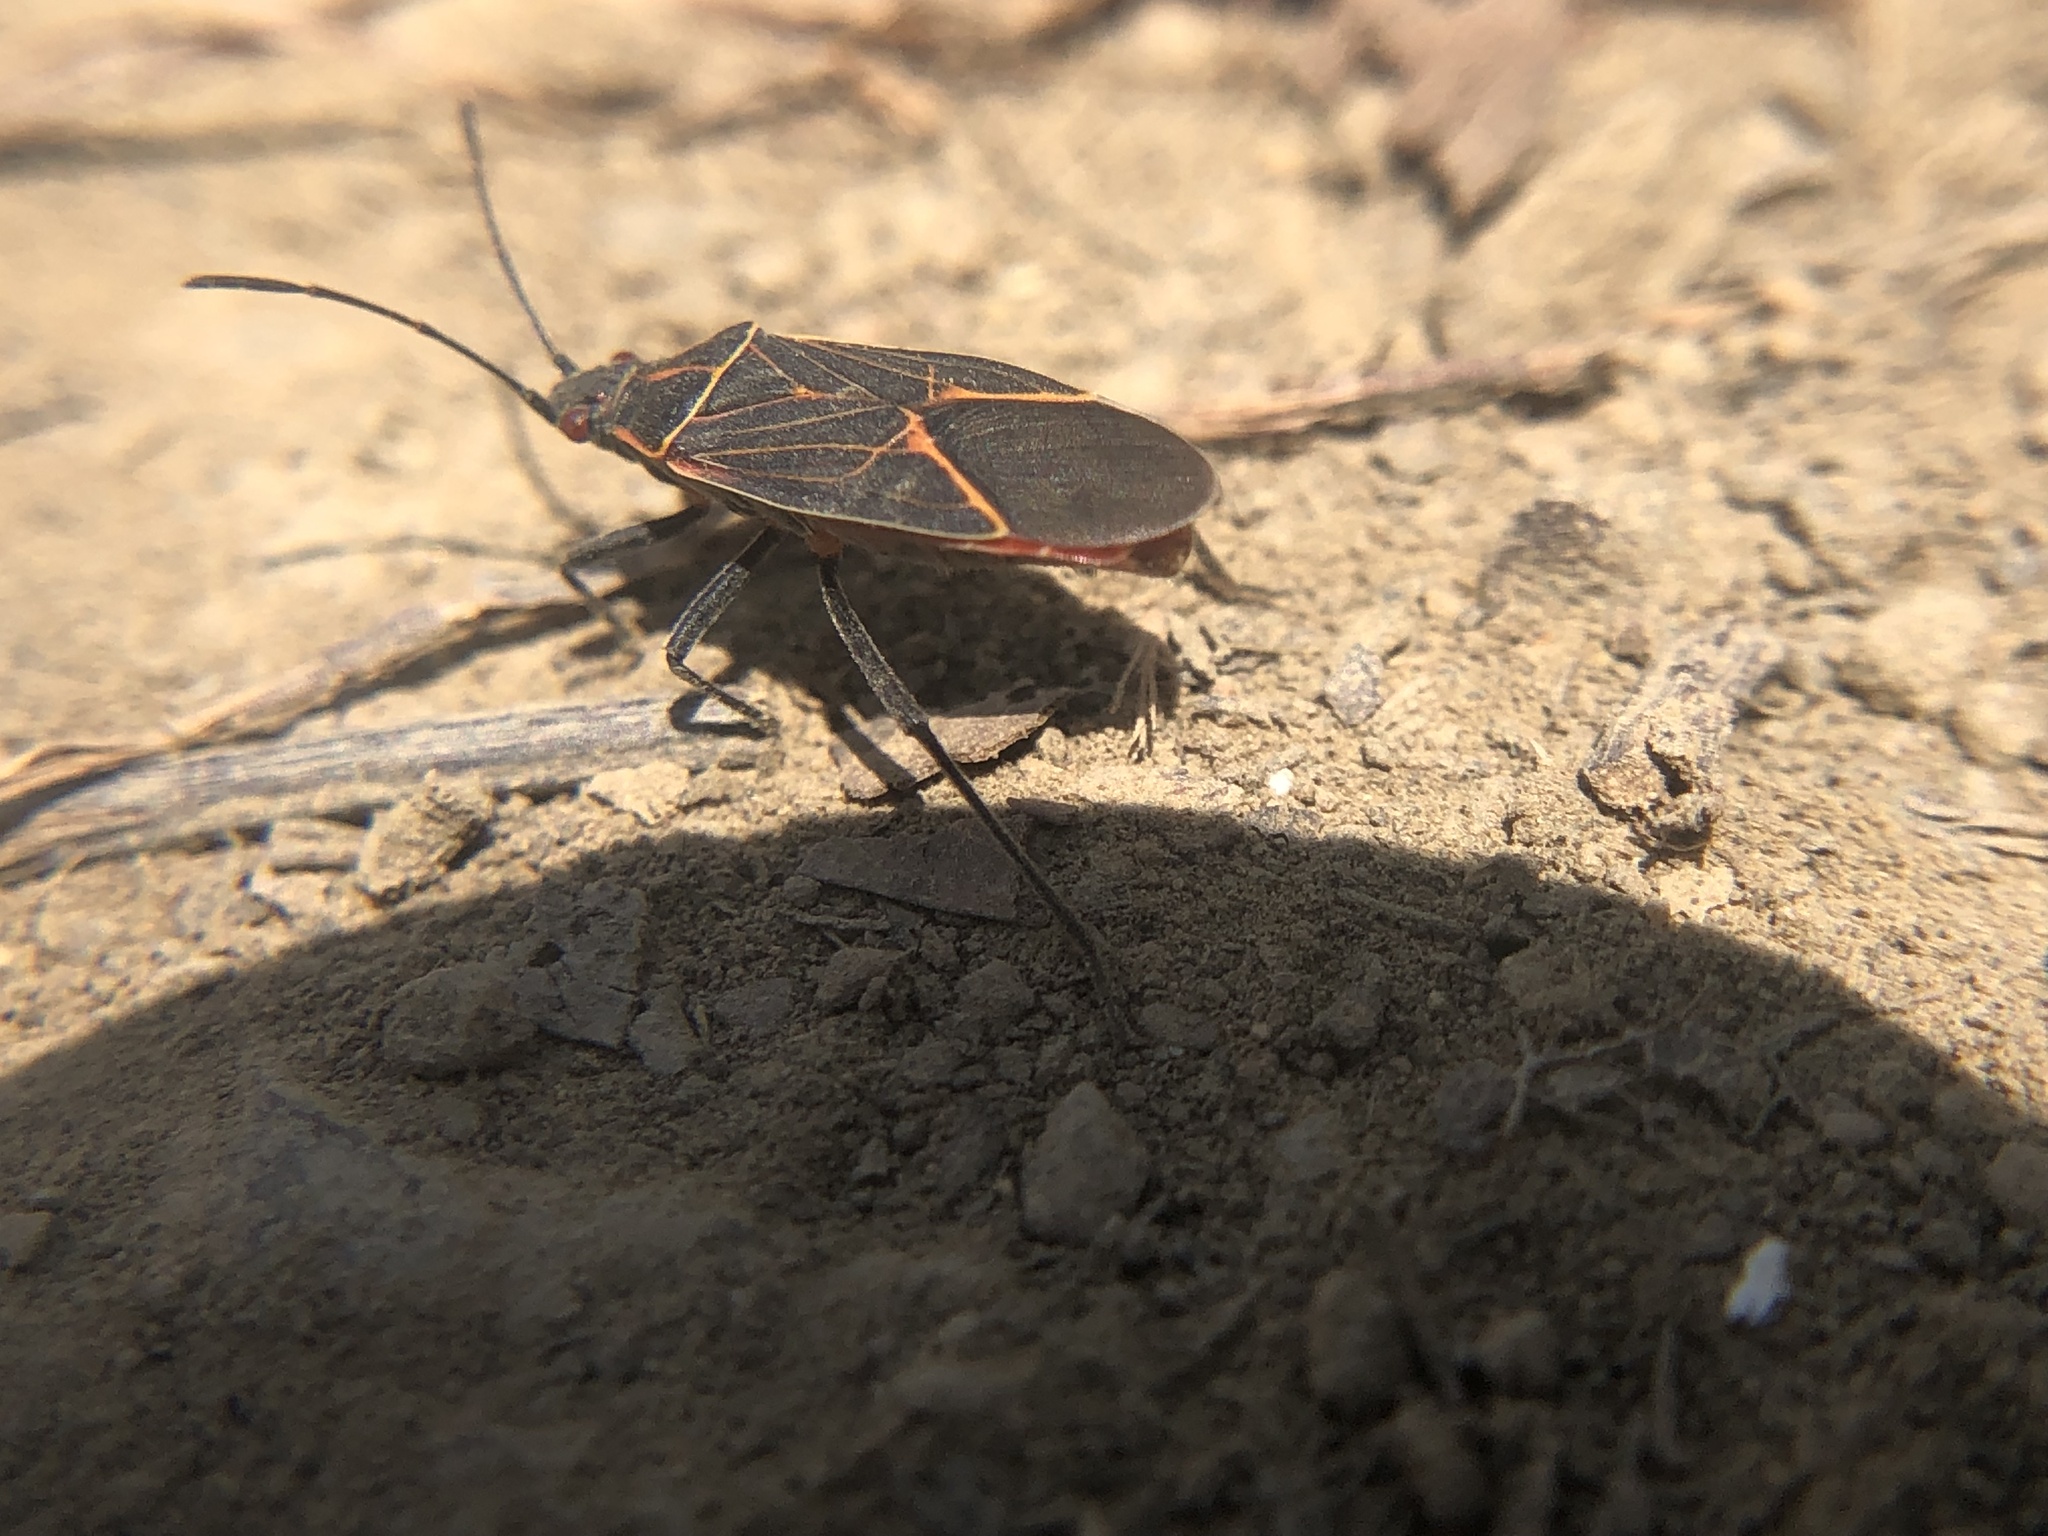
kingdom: Animalia
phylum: Arthropoda
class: Insecta
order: Hemiptera
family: Rhopalidae
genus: Boisea
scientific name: Boisea rubrolineata
